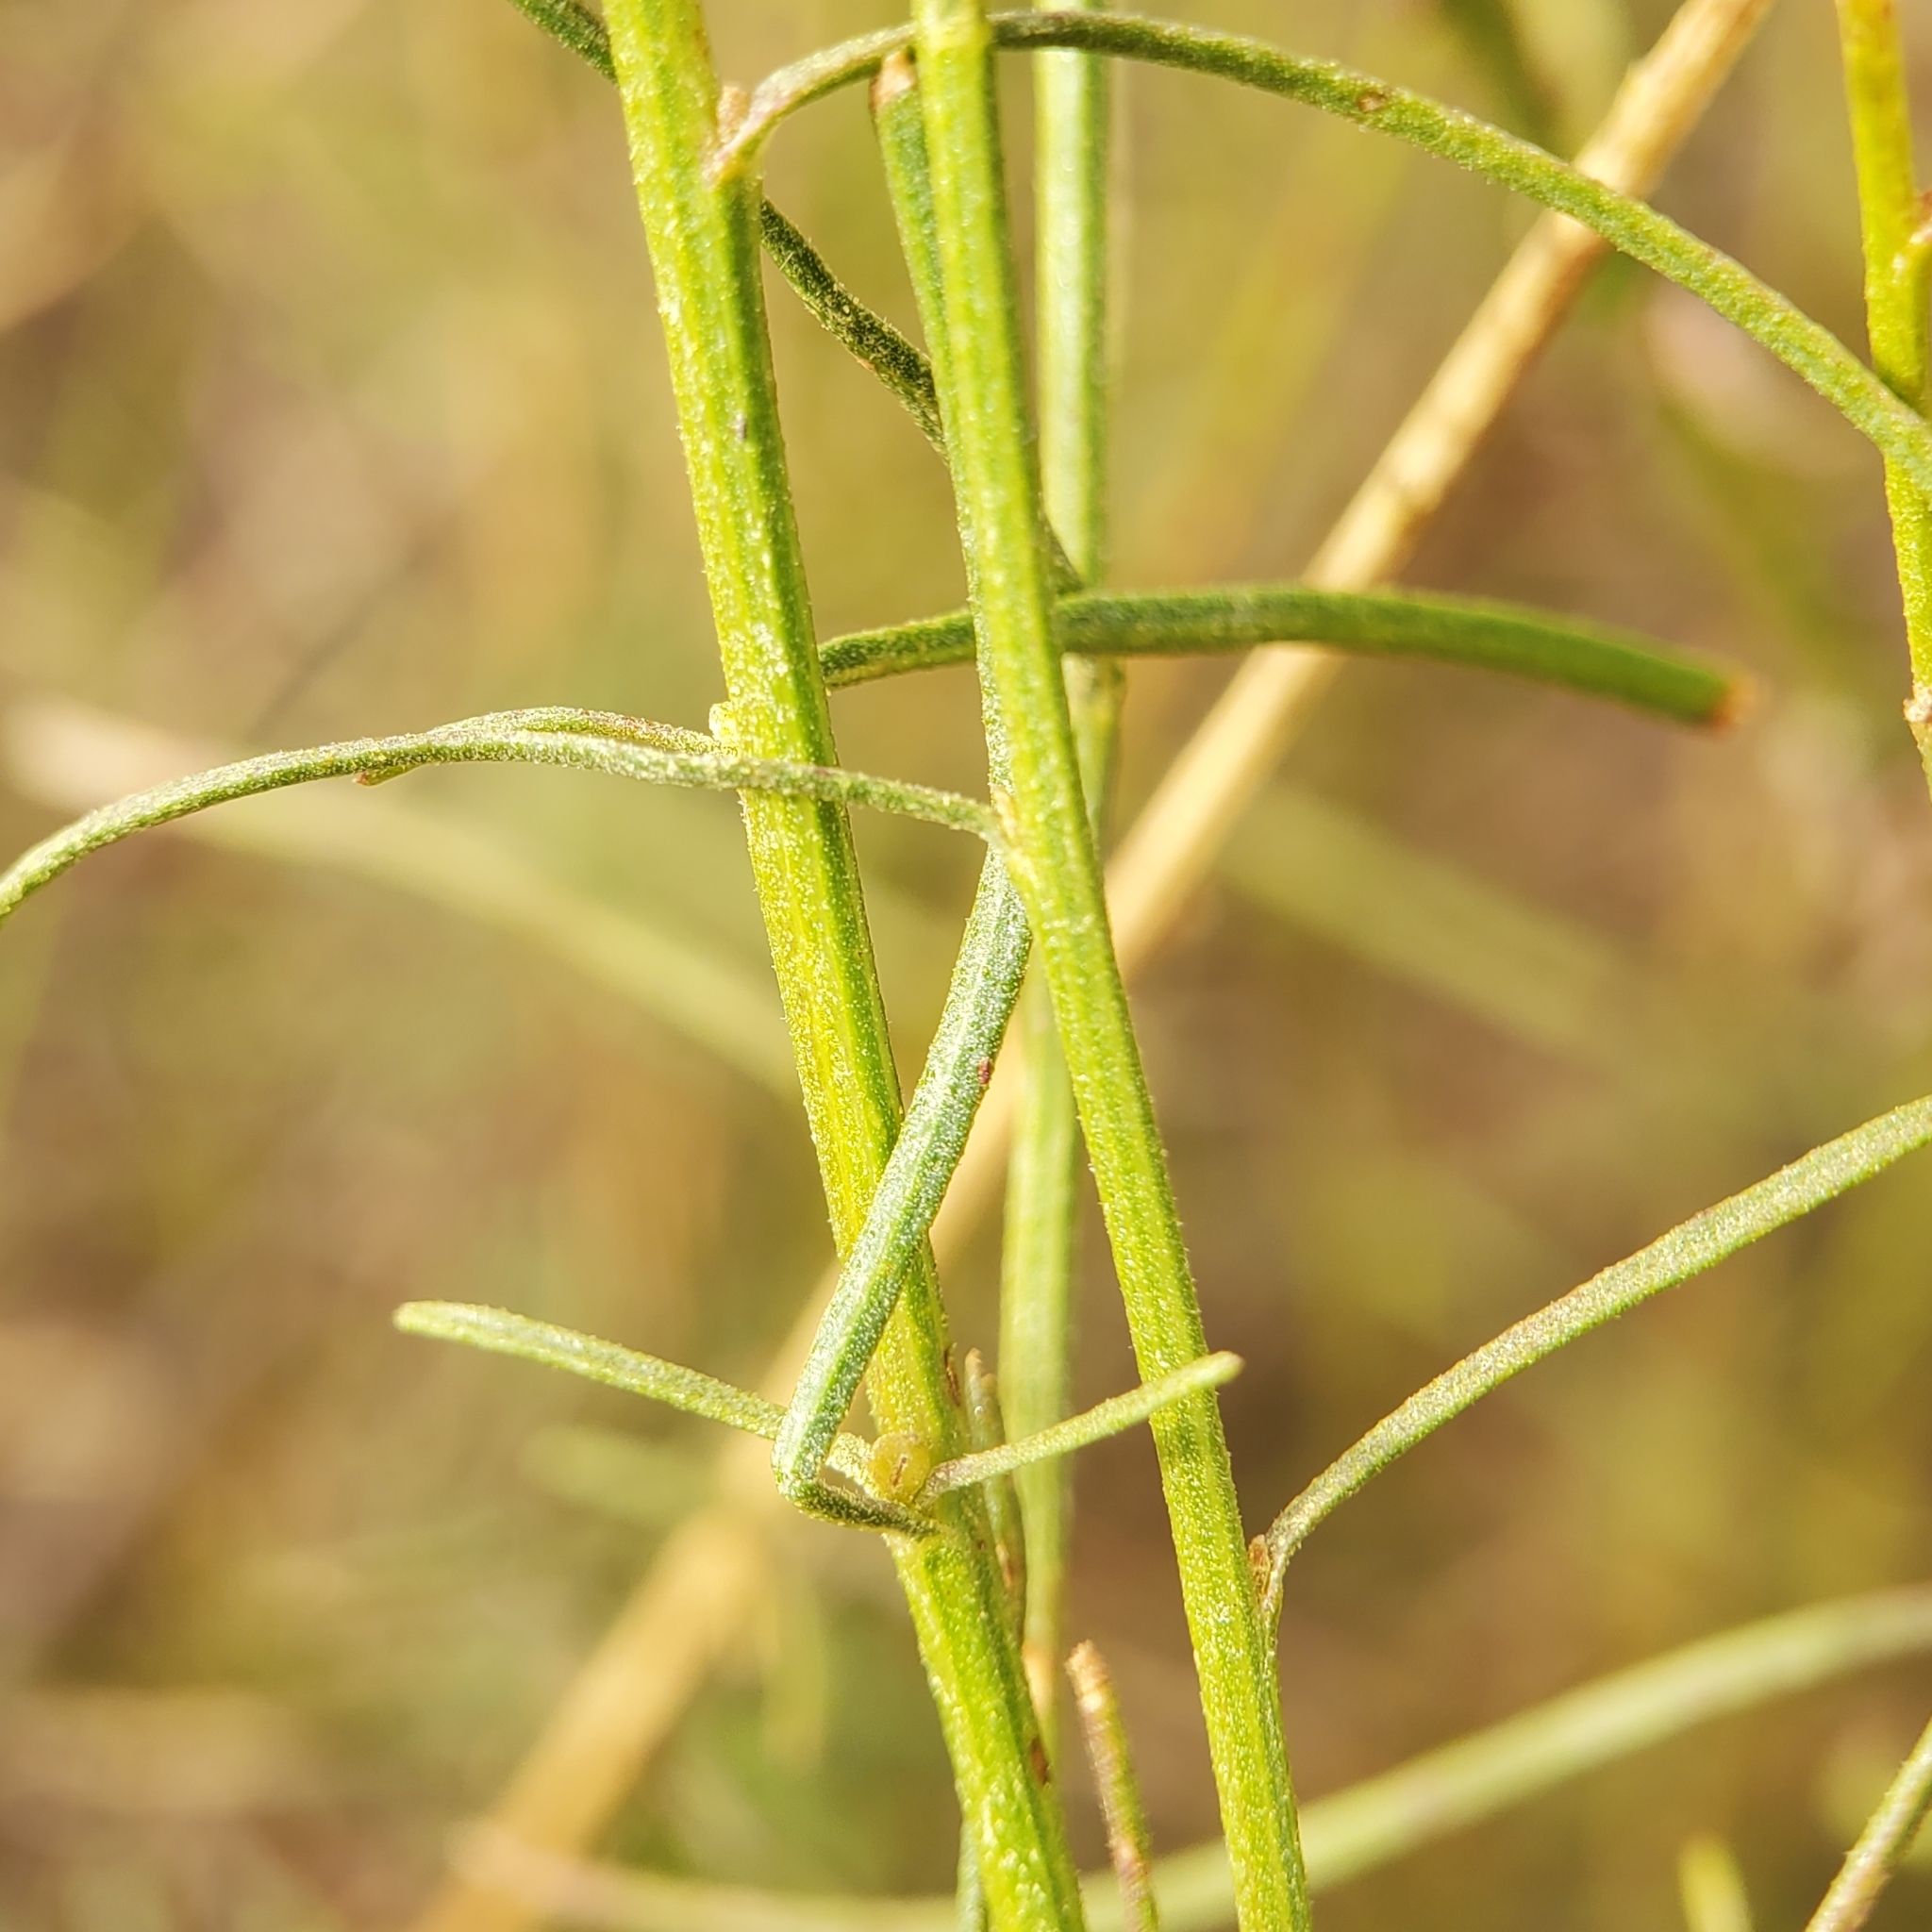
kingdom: Plantae
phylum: Tracheophyta
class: Magnoliopsida
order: Asterales
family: Asteraceae
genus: Gutierrezia
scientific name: Gutierrezia californica
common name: California matchweed
